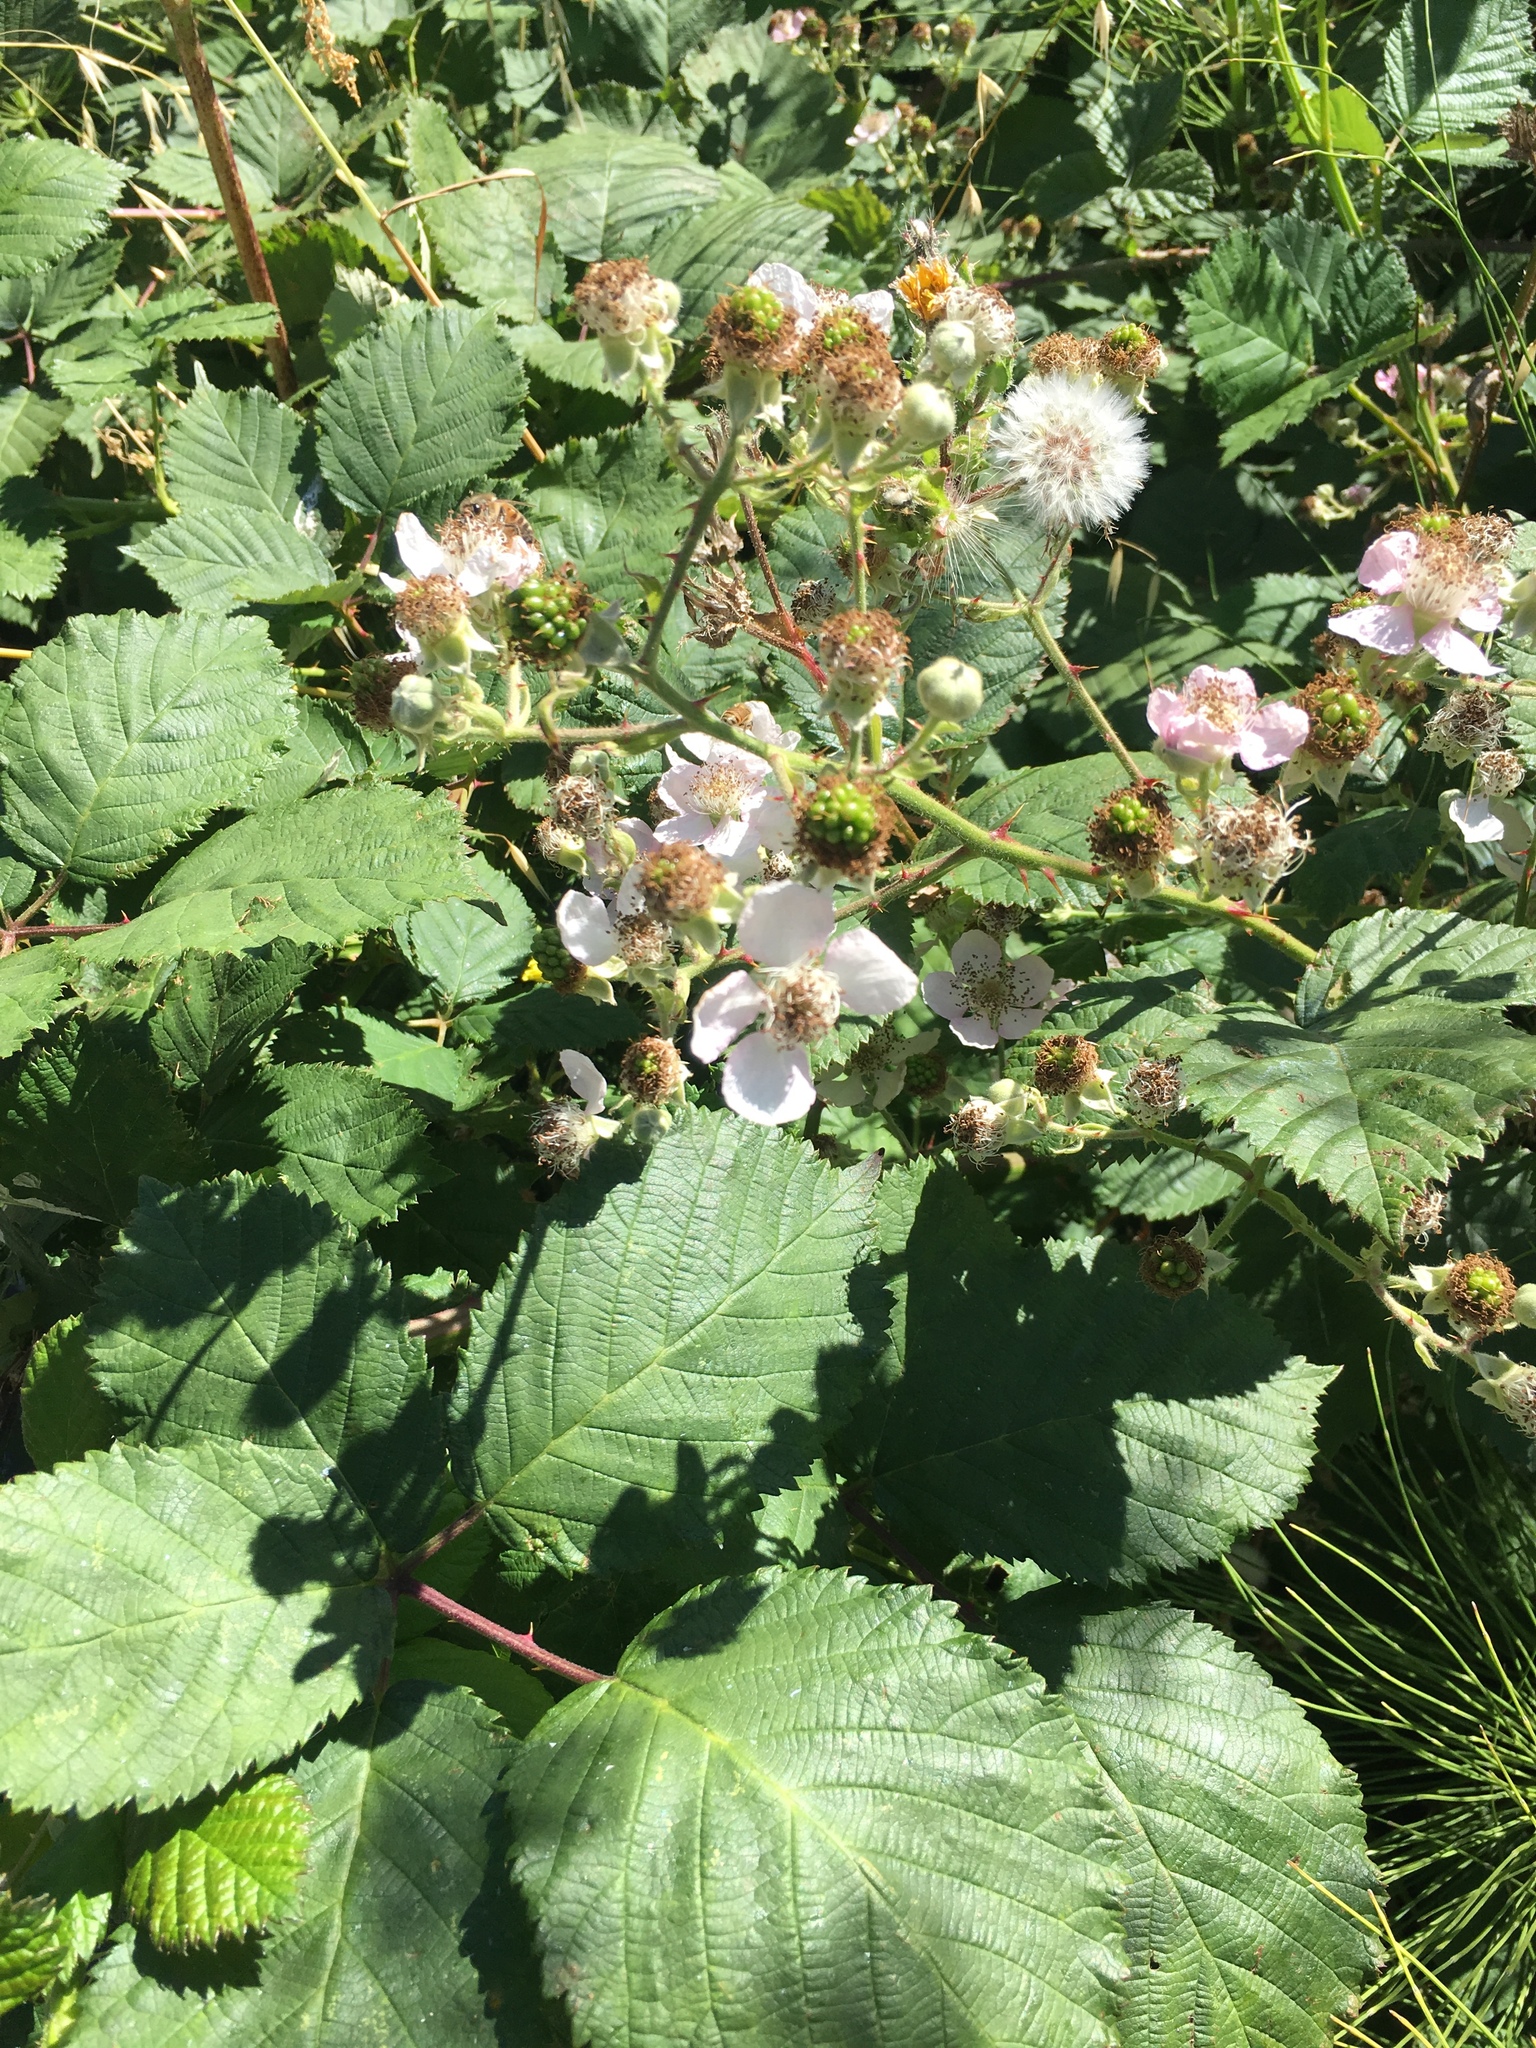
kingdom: Plantae
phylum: Tracheophyta
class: Magnoliopsida
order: Rosales
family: Rosaceae
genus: Rubus
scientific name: Rubus armeniacus
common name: Himalayan blackberry
